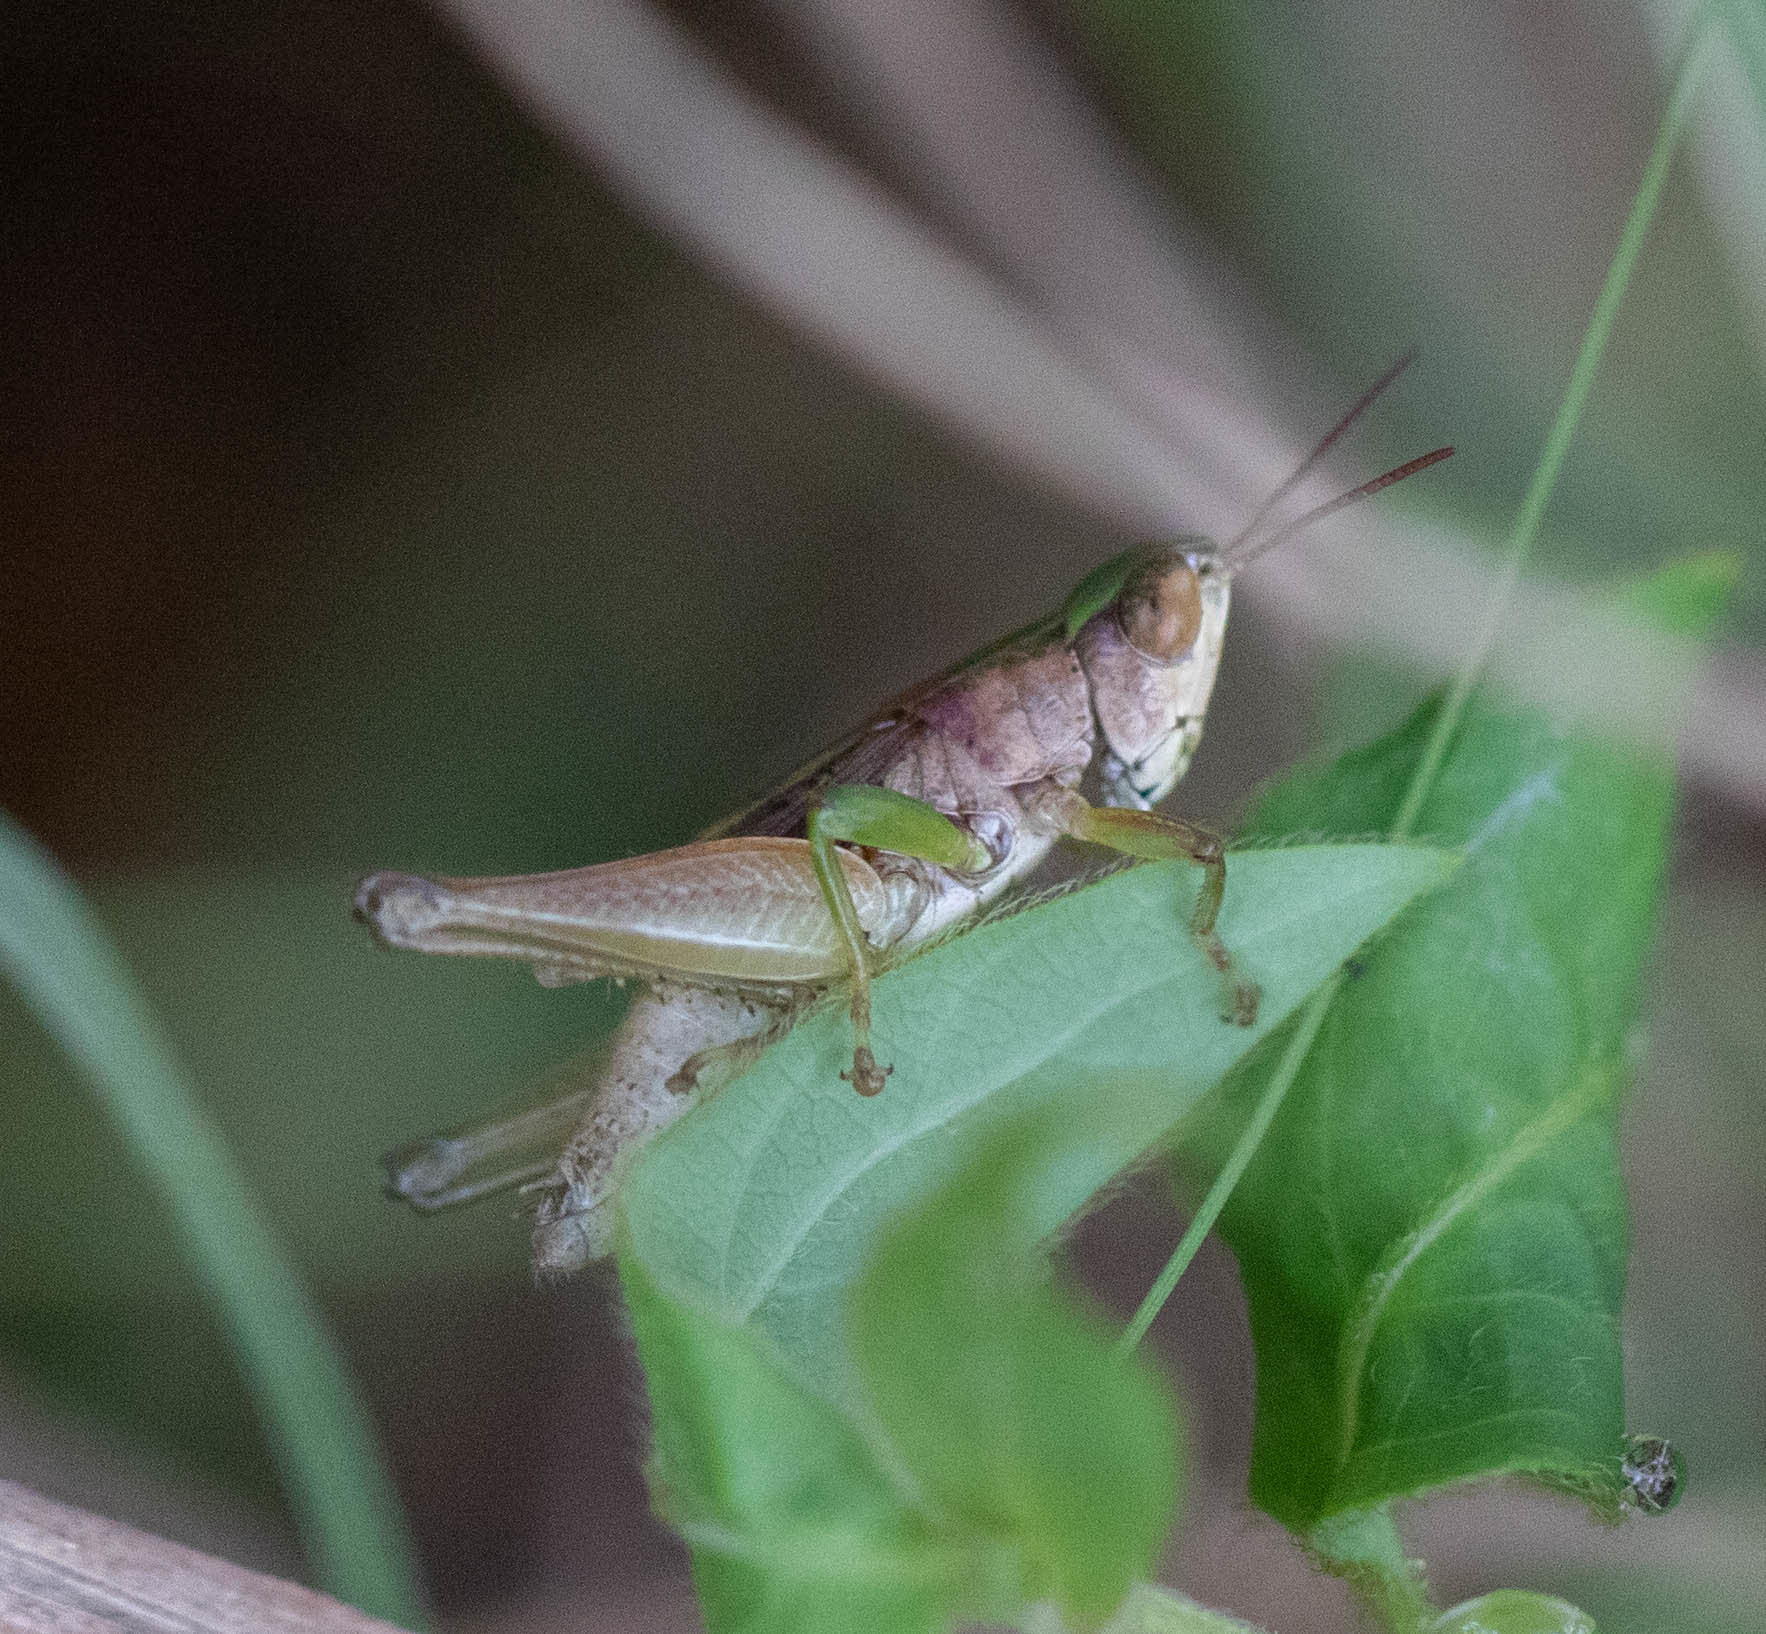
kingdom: Animalia
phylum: Arthropoda
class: Insecta
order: Orthoptera
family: Acrididae
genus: Dichromorpha
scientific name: Dichromorpha viridis
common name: Short-winged green grasshopper
